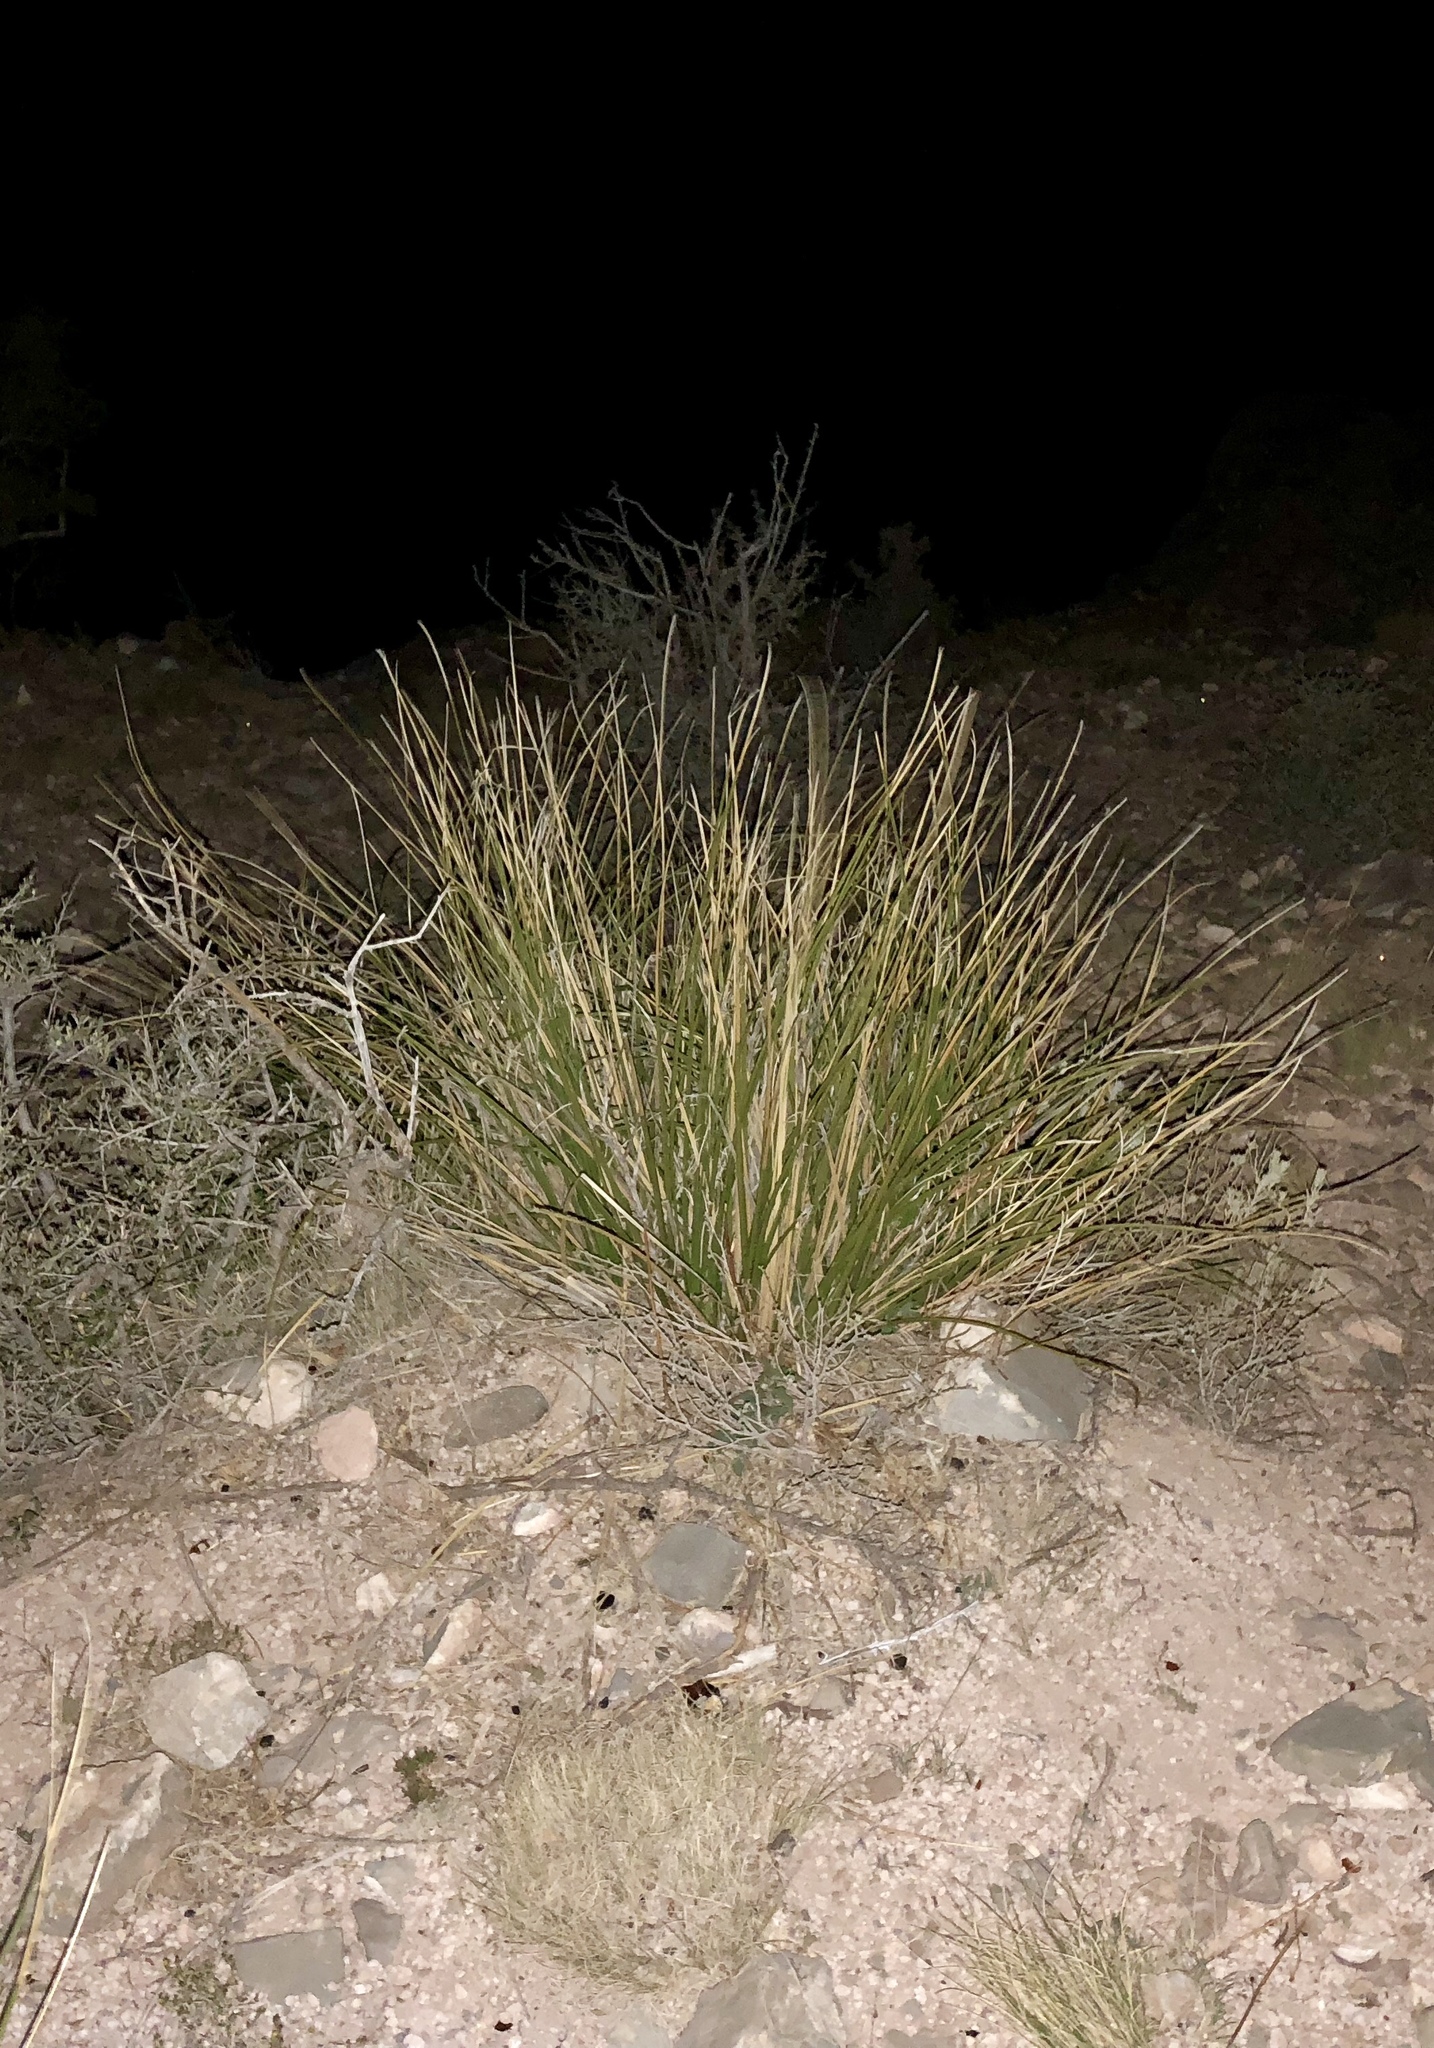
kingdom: Plantae
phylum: Tracheophyta
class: Liliopsida
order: Asparagales
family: Asparagaceae
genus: Nolina
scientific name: Nolina microcarpa
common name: Bear-grass
